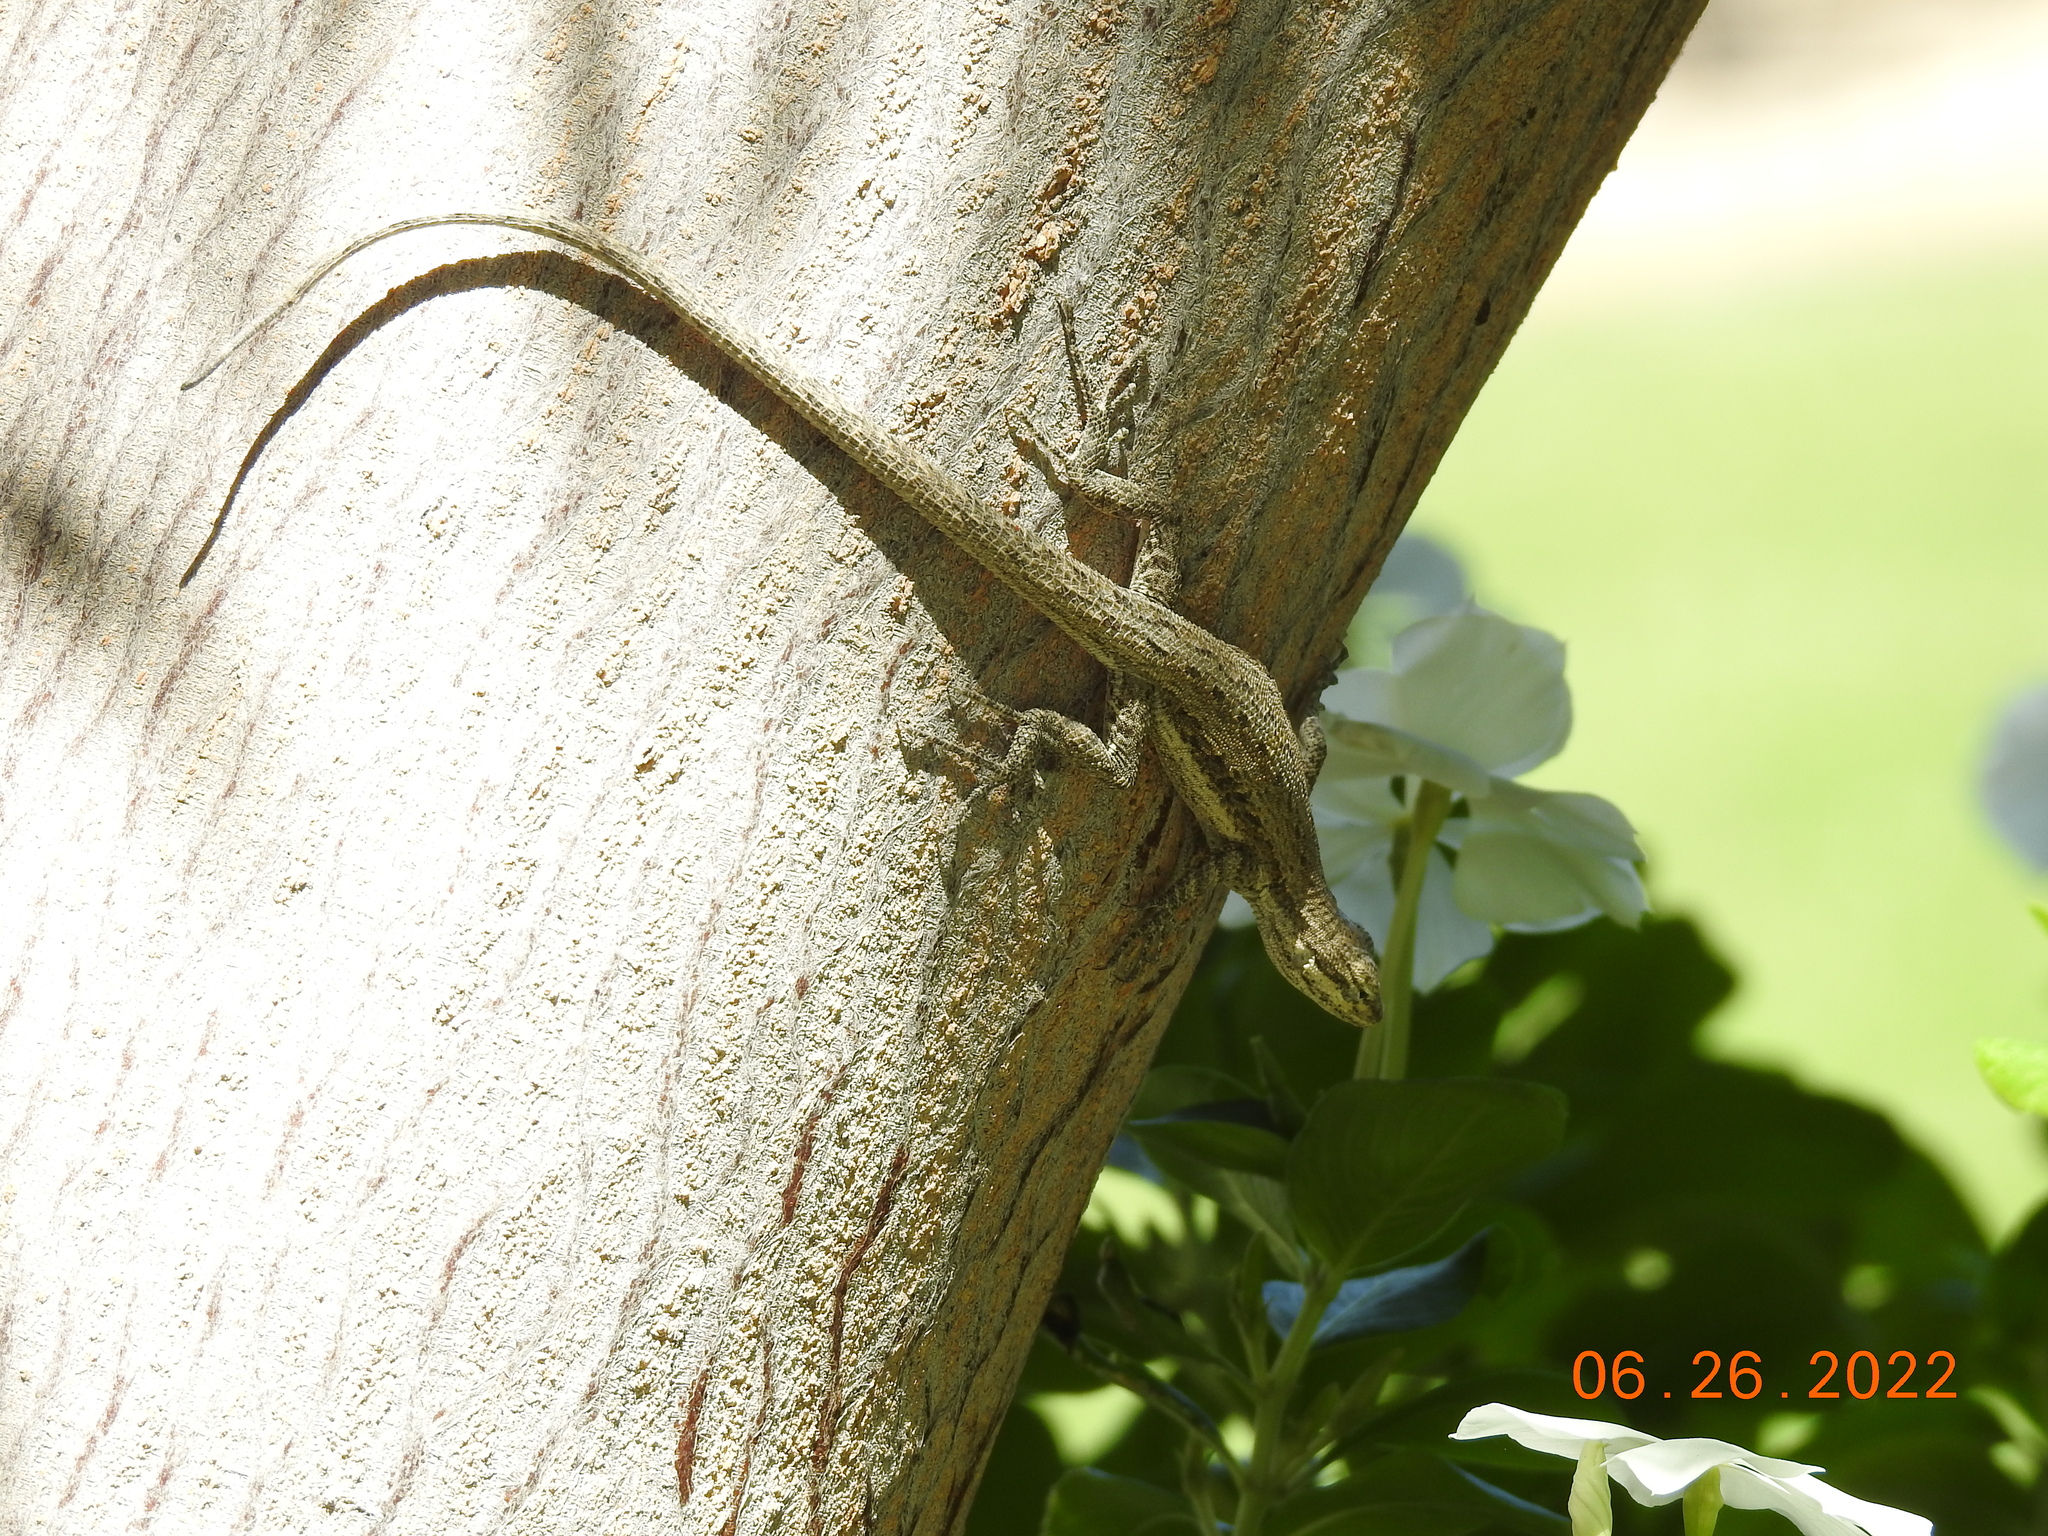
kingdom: Animalia
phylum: Chordata
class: Squamata
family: Phrynosomatidae
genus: Urosaurus
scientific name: Urosaurus graciosus
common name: Long-tailed brush lizard
